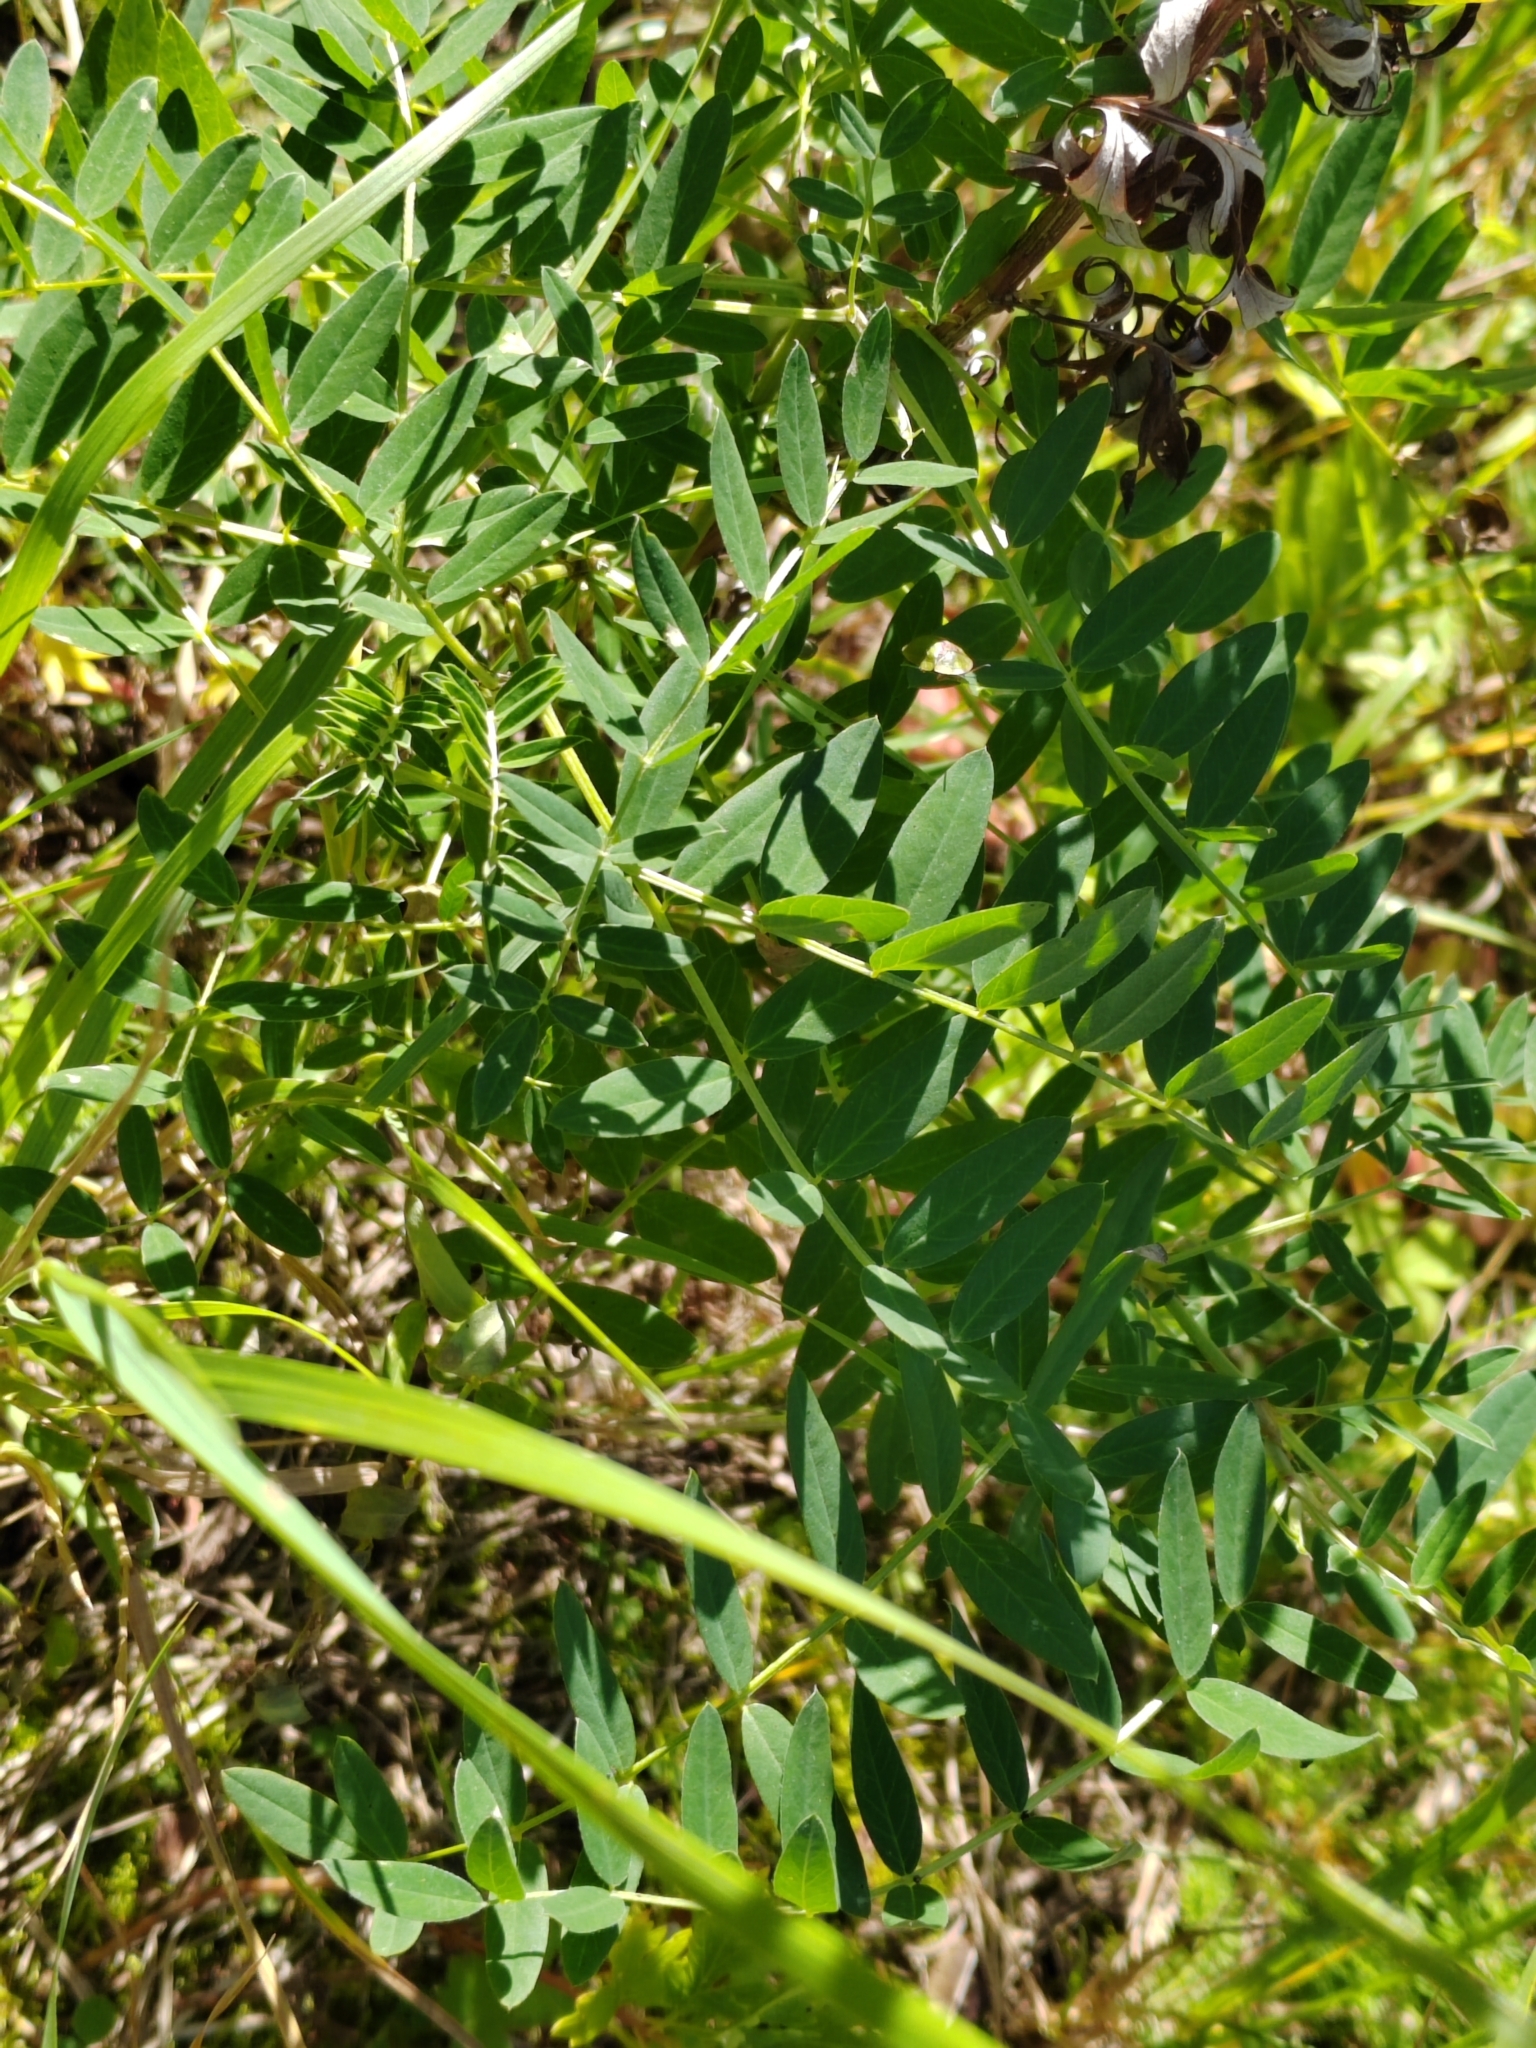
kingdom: Plantae
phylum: Tracheophyta
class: Magnoliopsida
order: Fabales
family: Fabaceae
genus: Astragalus
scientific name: Astragalus uliginosus
